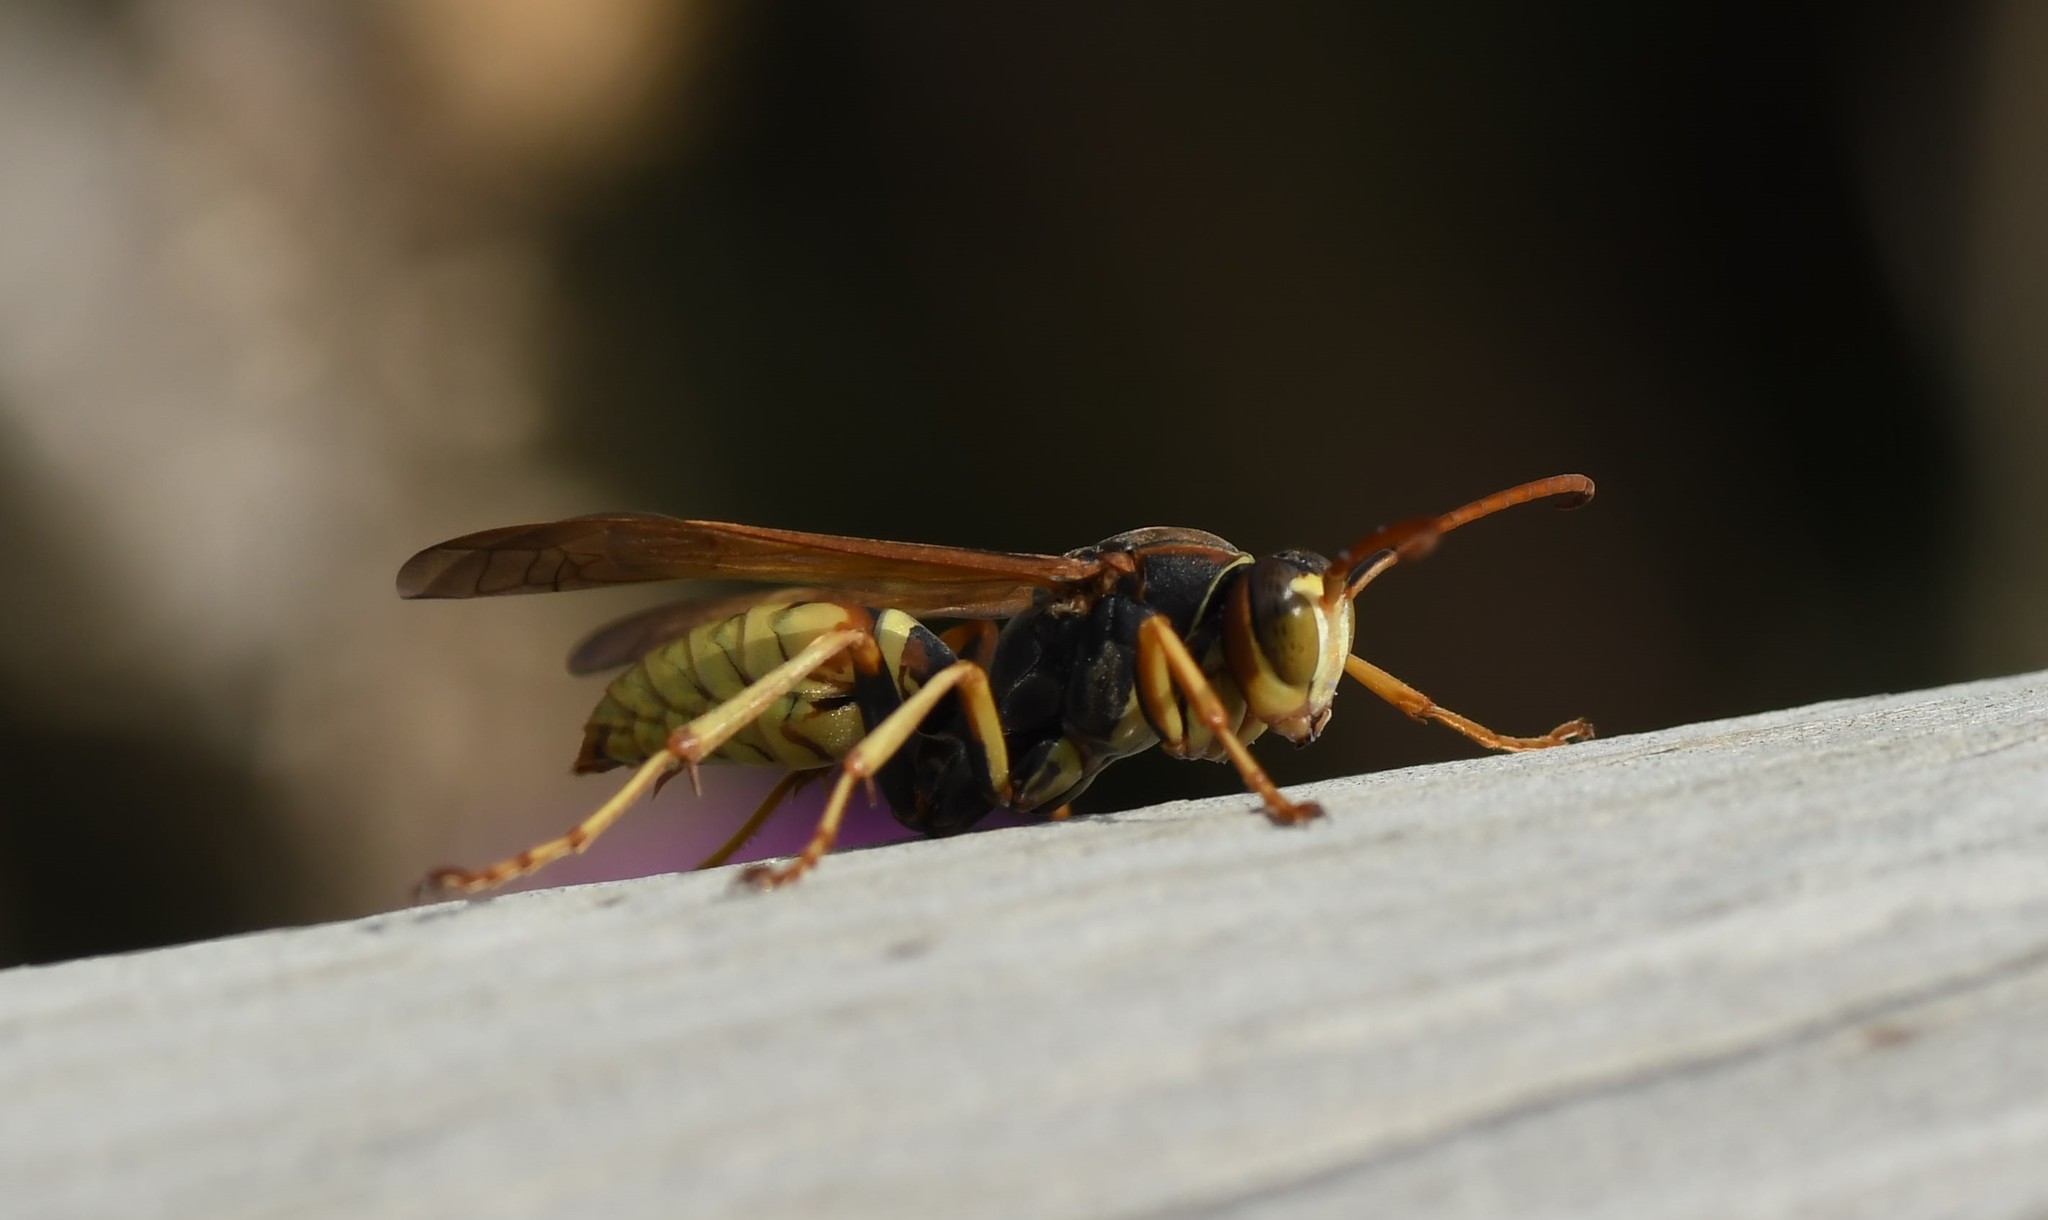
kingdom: Animalia
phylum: Arthropoda
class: Insecta
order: Hymenoptera
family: Eumenidae
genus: Polistes
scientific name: Polistes aurifer
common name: Paper wasp
